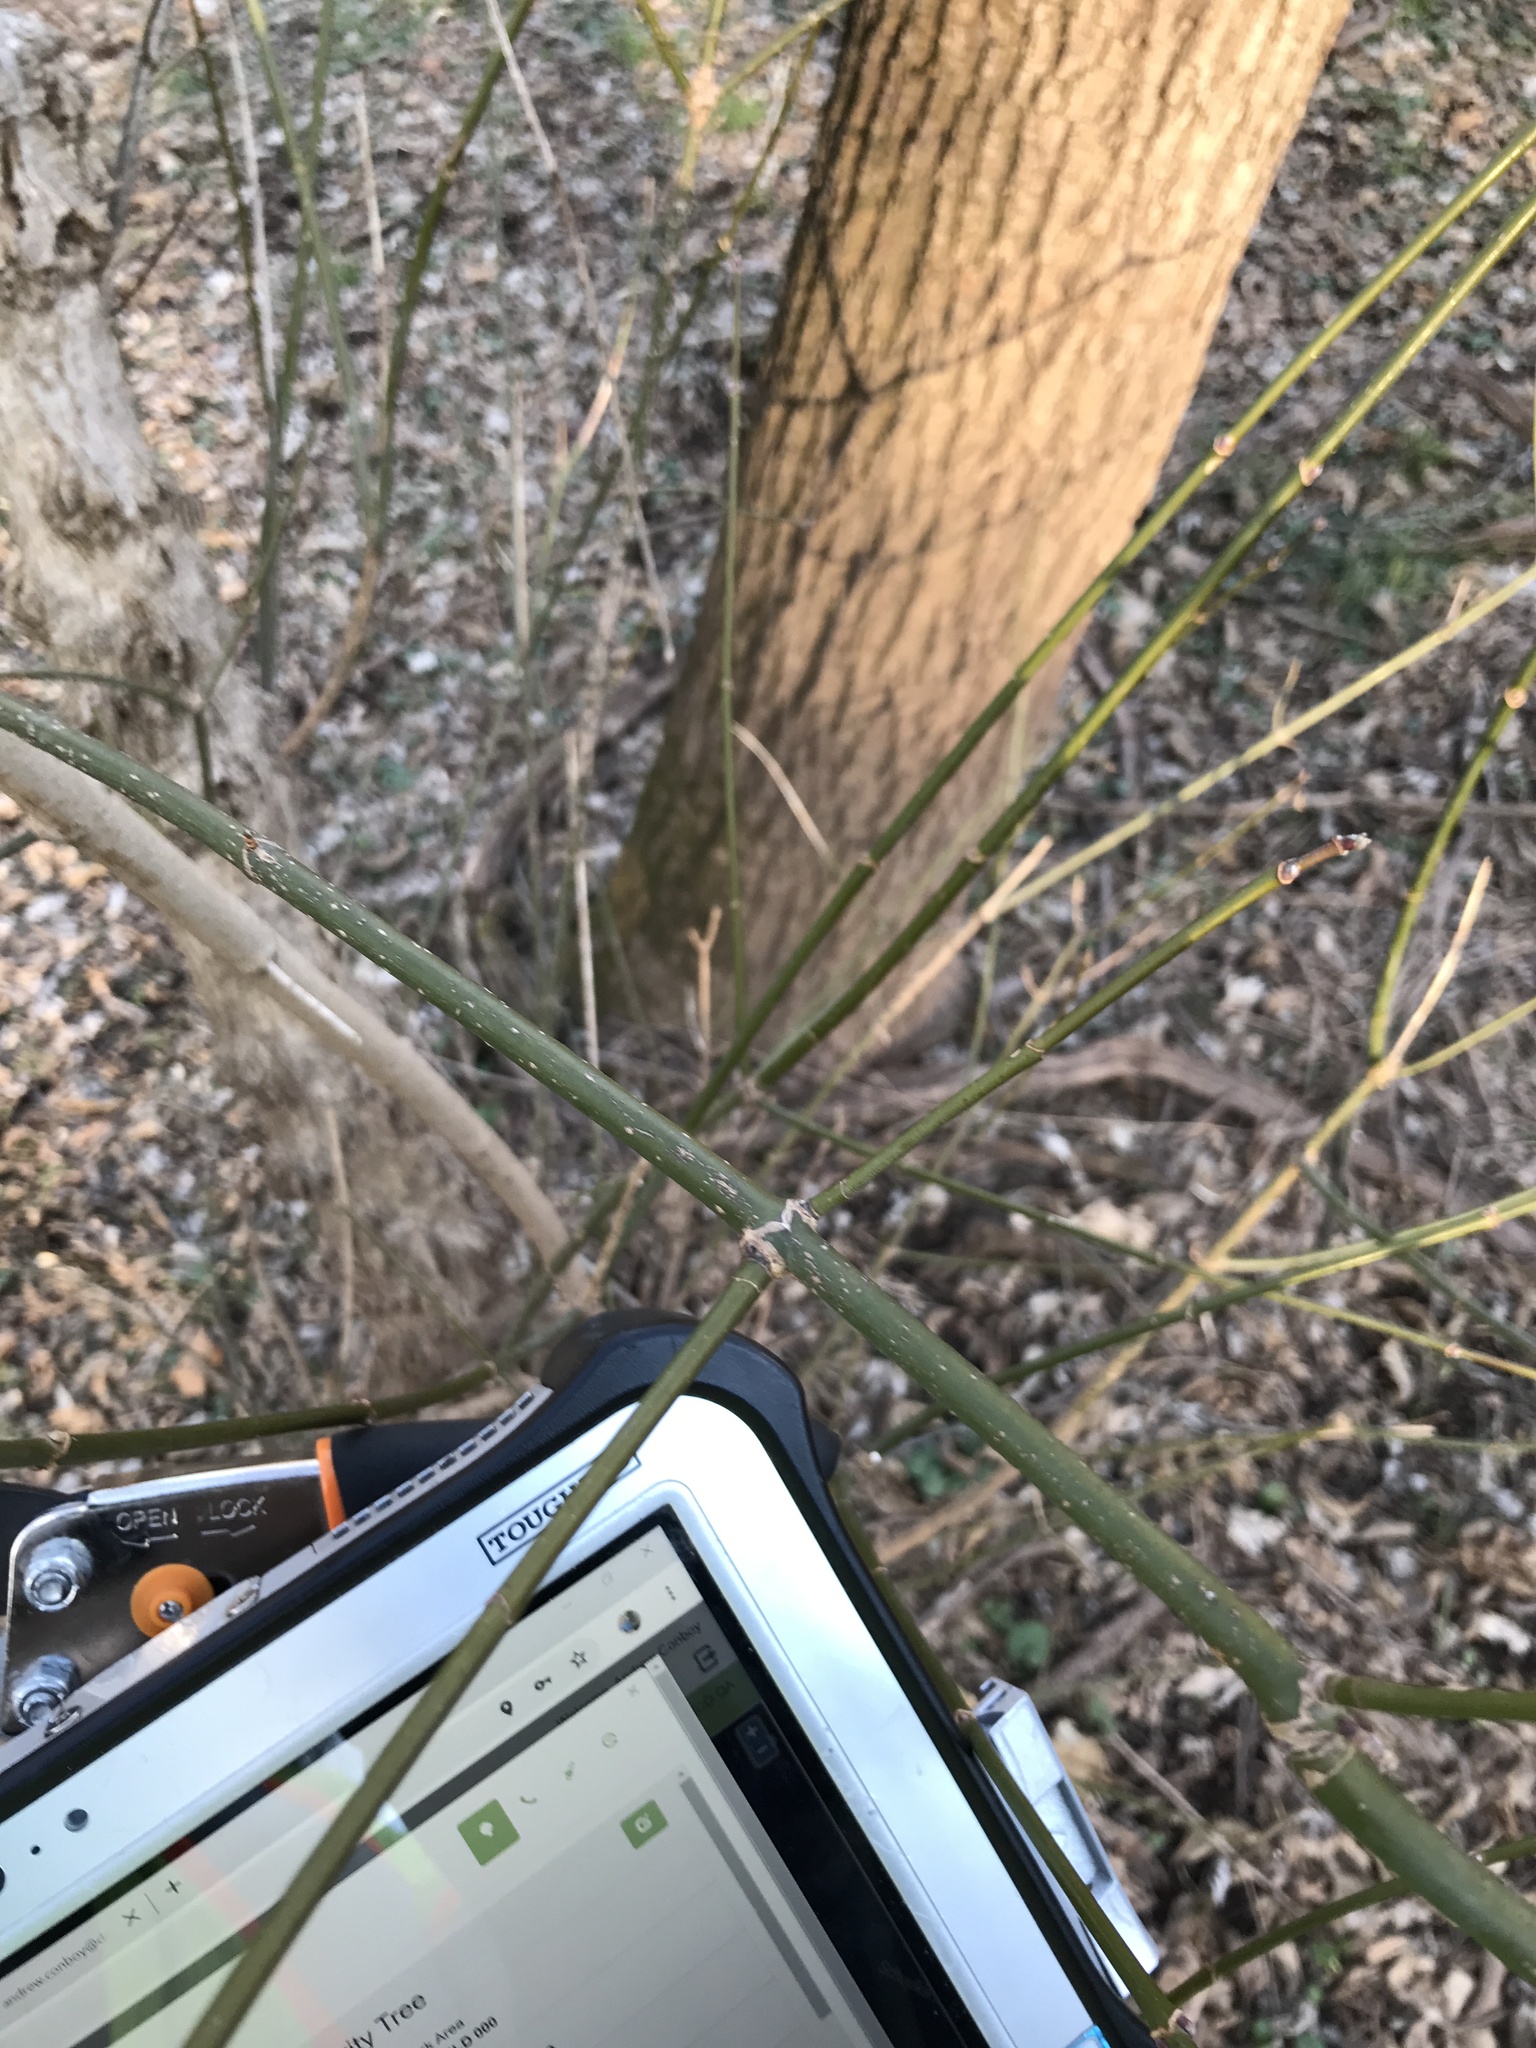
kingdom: Plantae
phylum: Tracheophyta
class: Magnoliopsida
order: Sapindales
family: Sapindaceae
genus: Acer
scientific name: Acer negundo
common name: Ashleaf maple
